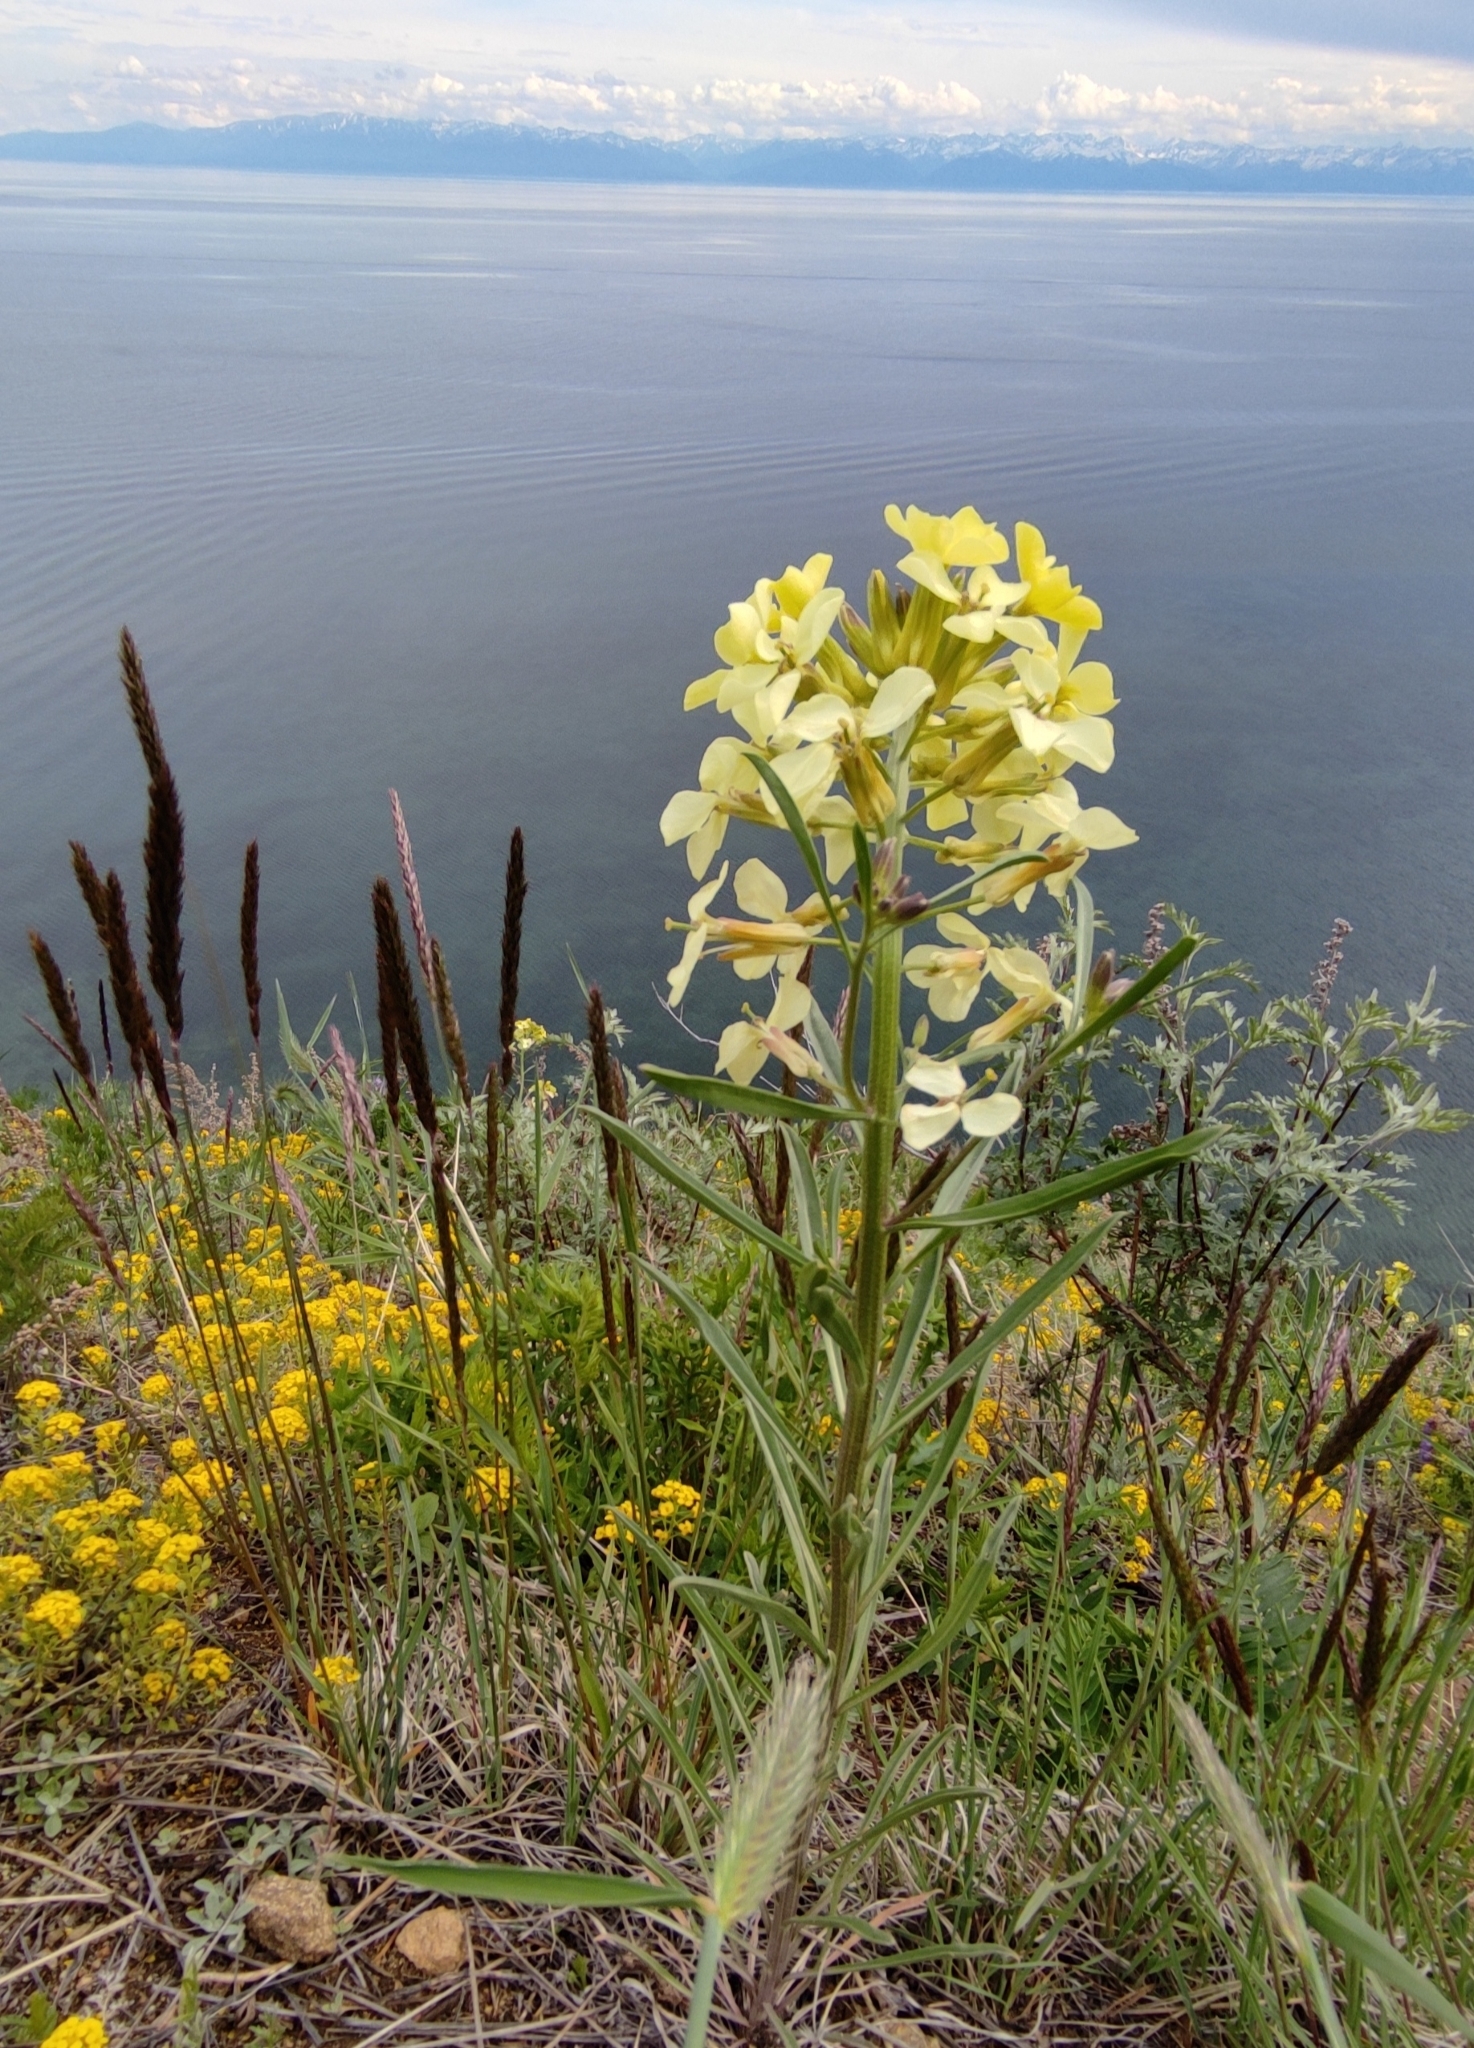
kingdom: Plantae
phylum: Tracheophyta
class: Magnoliopsida
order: Brassicales
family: Brassicaceae
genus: Erysimum
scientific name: Erysimum flavum
